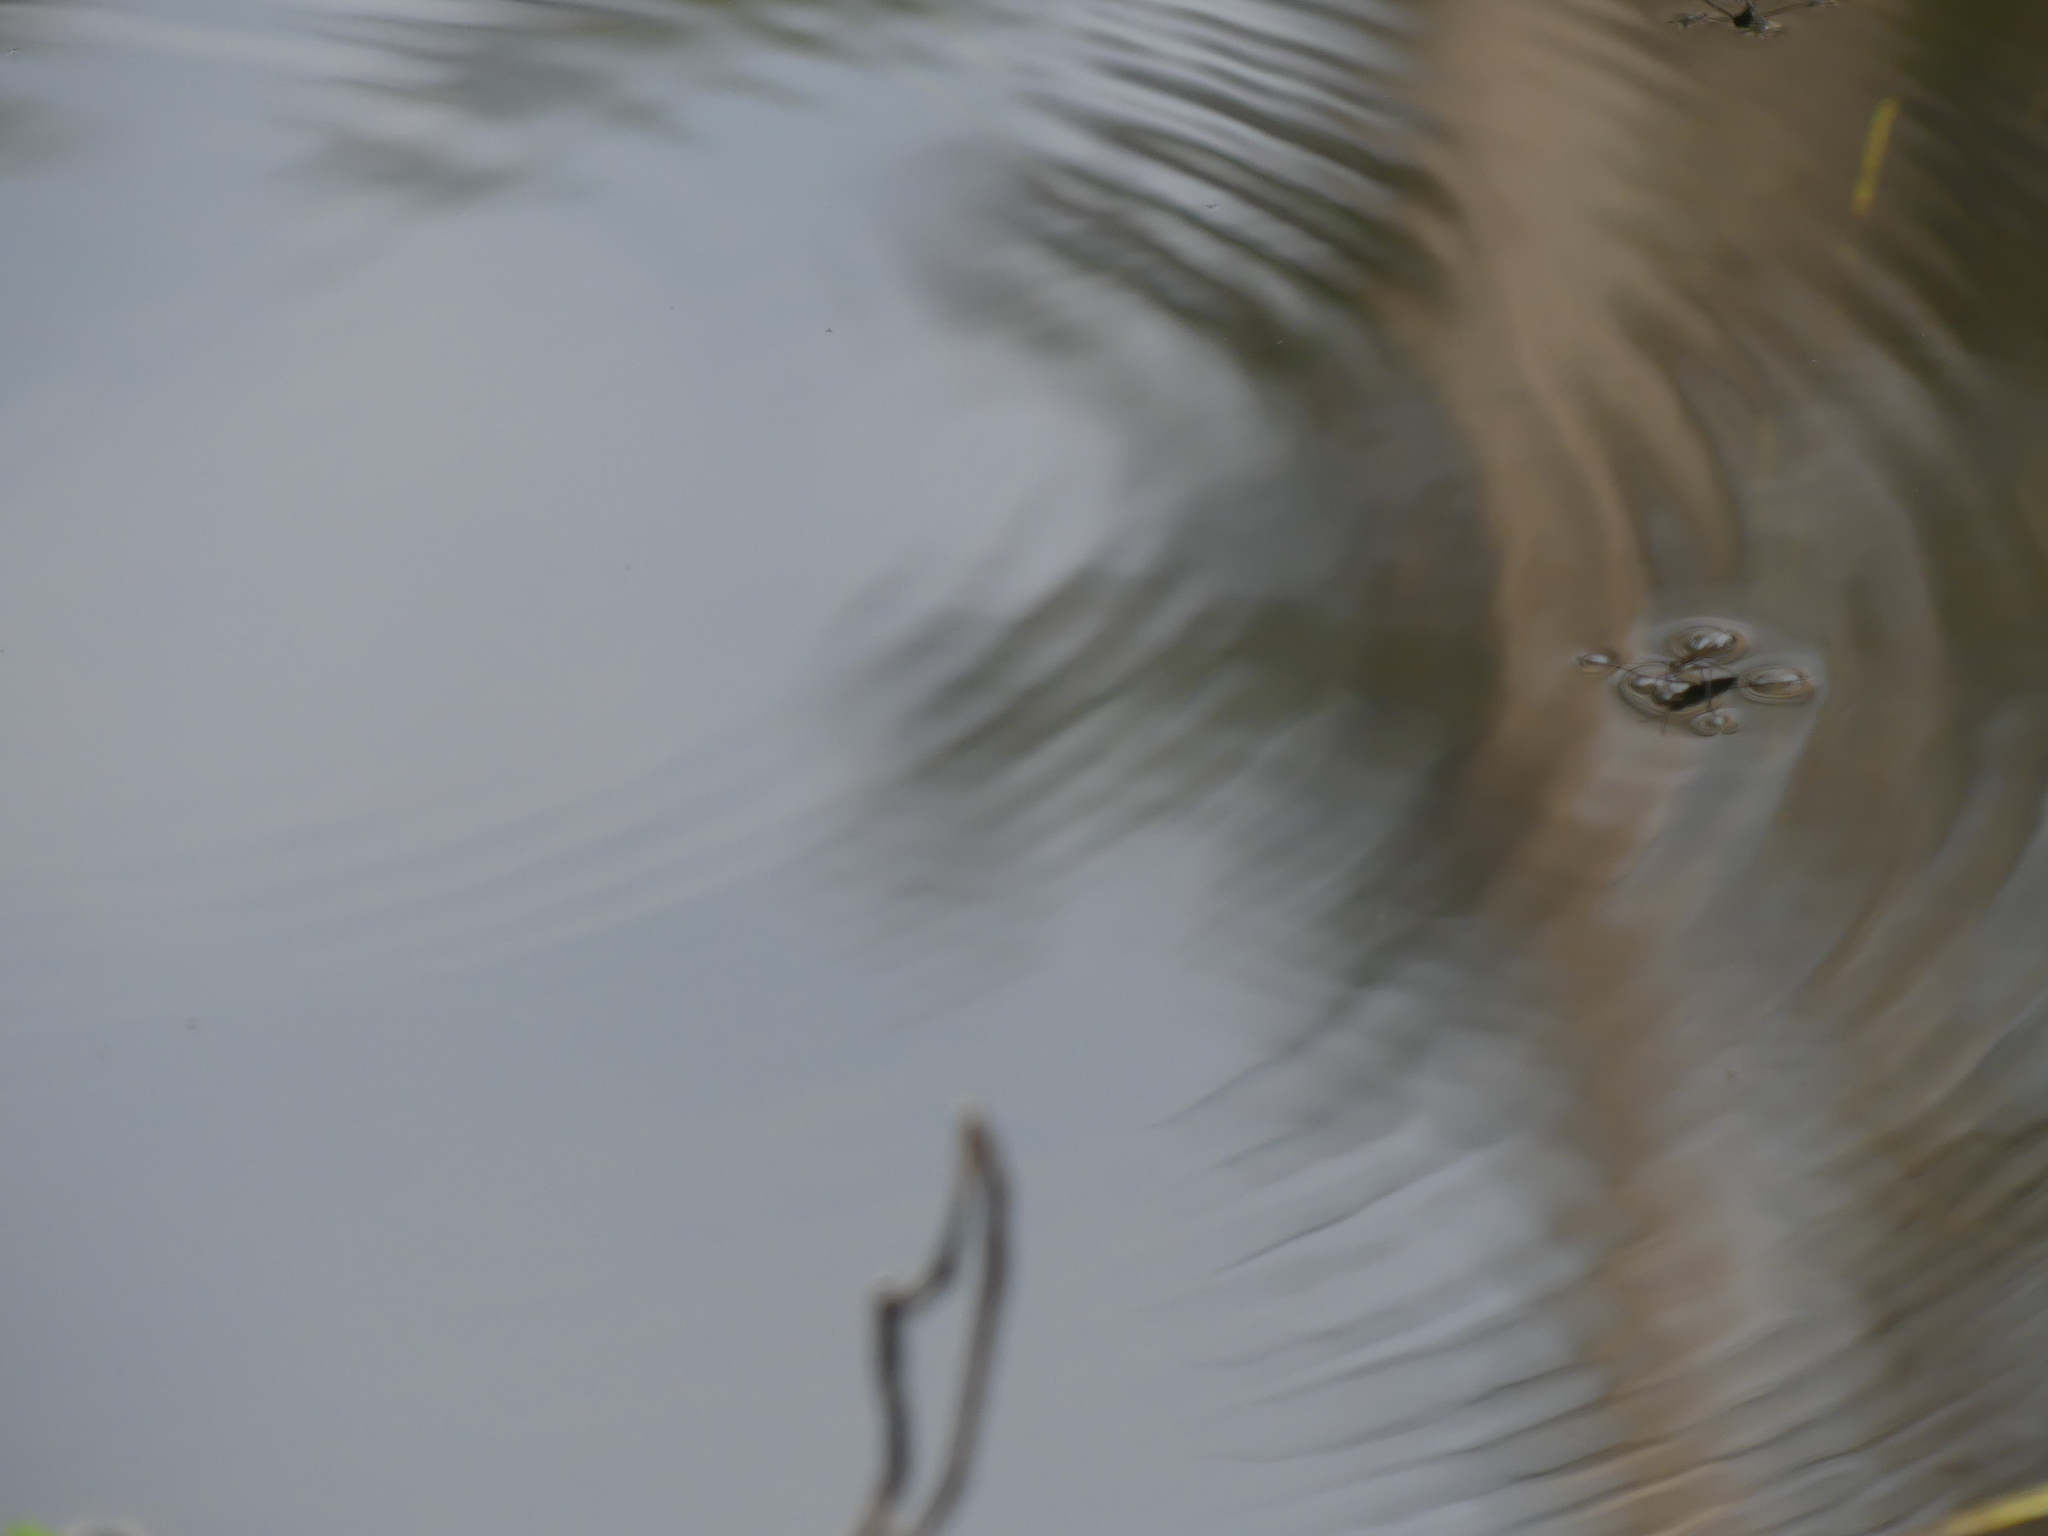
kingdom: Animalia
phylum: Arthropoda
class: Insecta
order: Hemiptera
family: Gerridae
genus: Aquarius
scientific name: Aquarius remigis
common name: Common water strider
